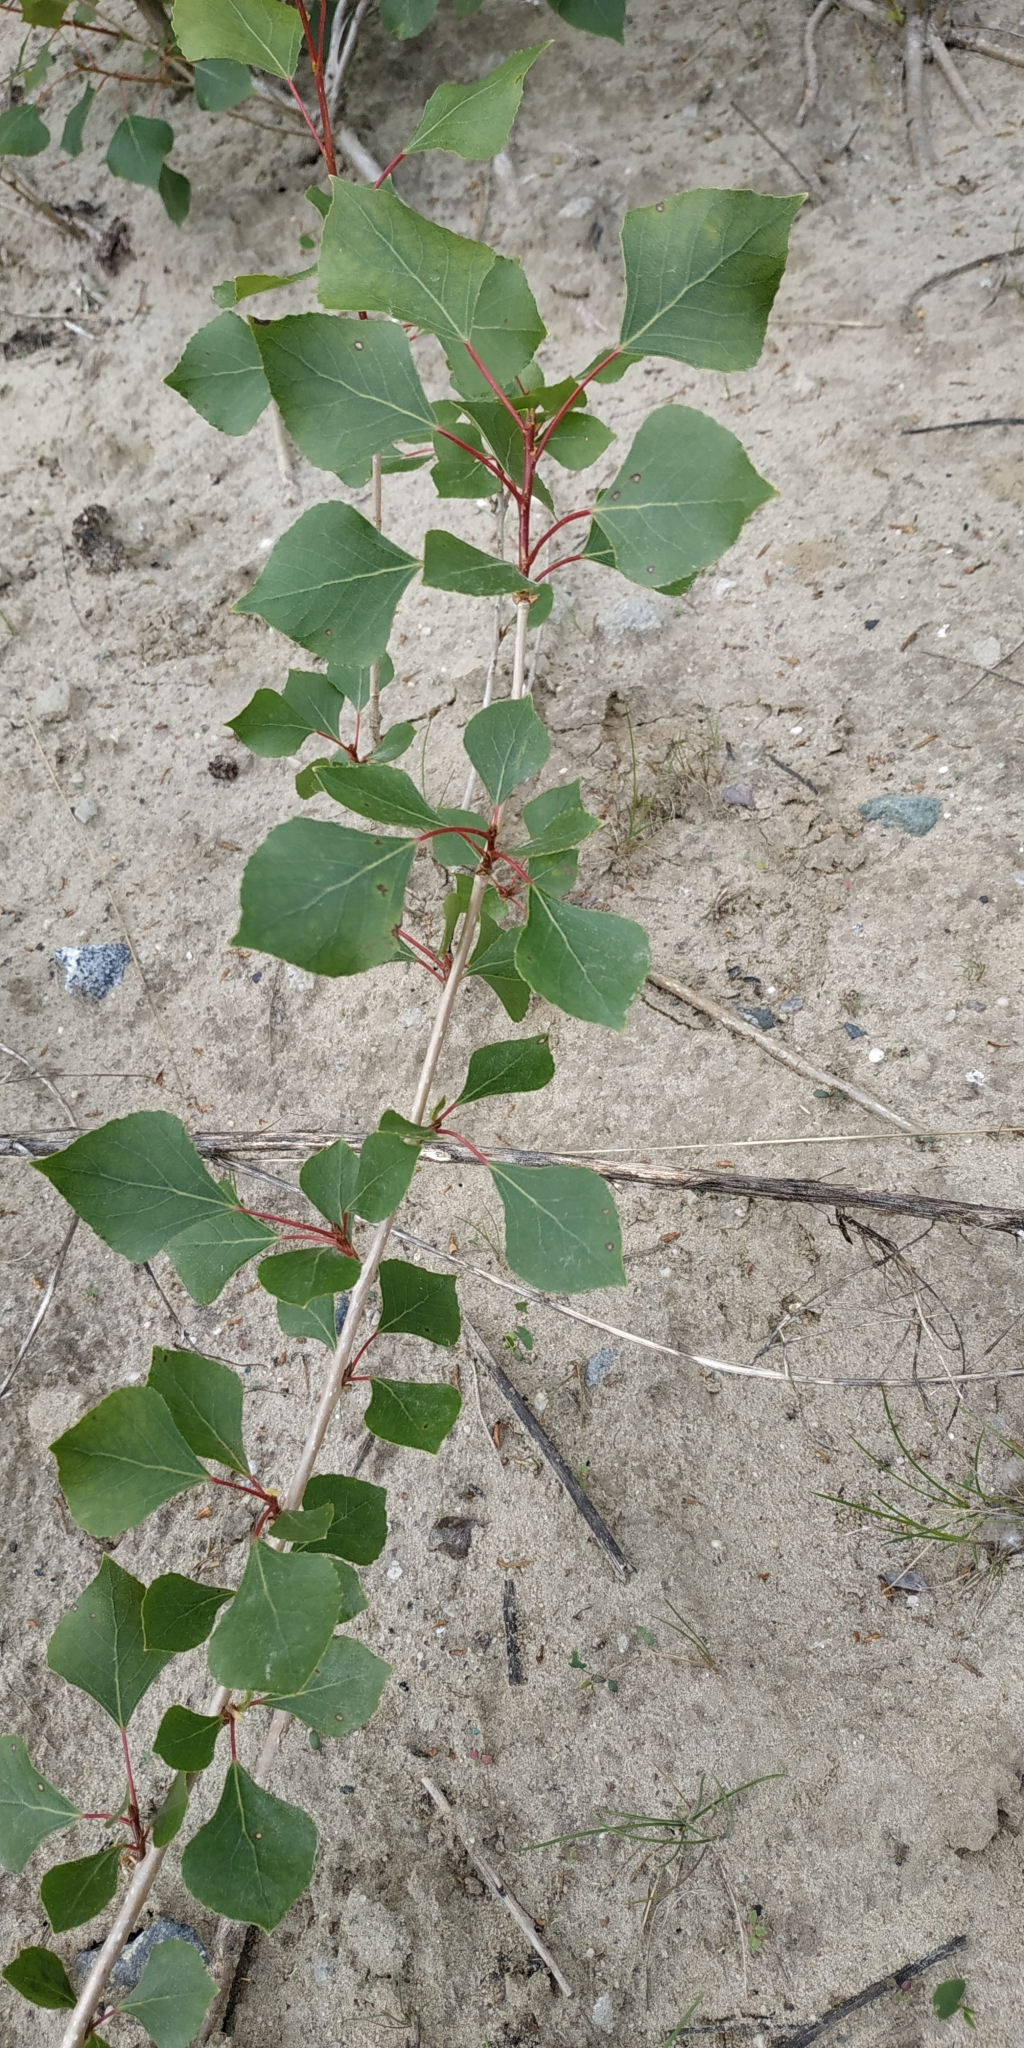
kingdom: Plantae
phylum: Tracheophyta
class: Magnoliopsida
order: Malpighiales
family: Salicaceae
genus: Populus
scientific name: Populus nigra
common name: Black poplar
